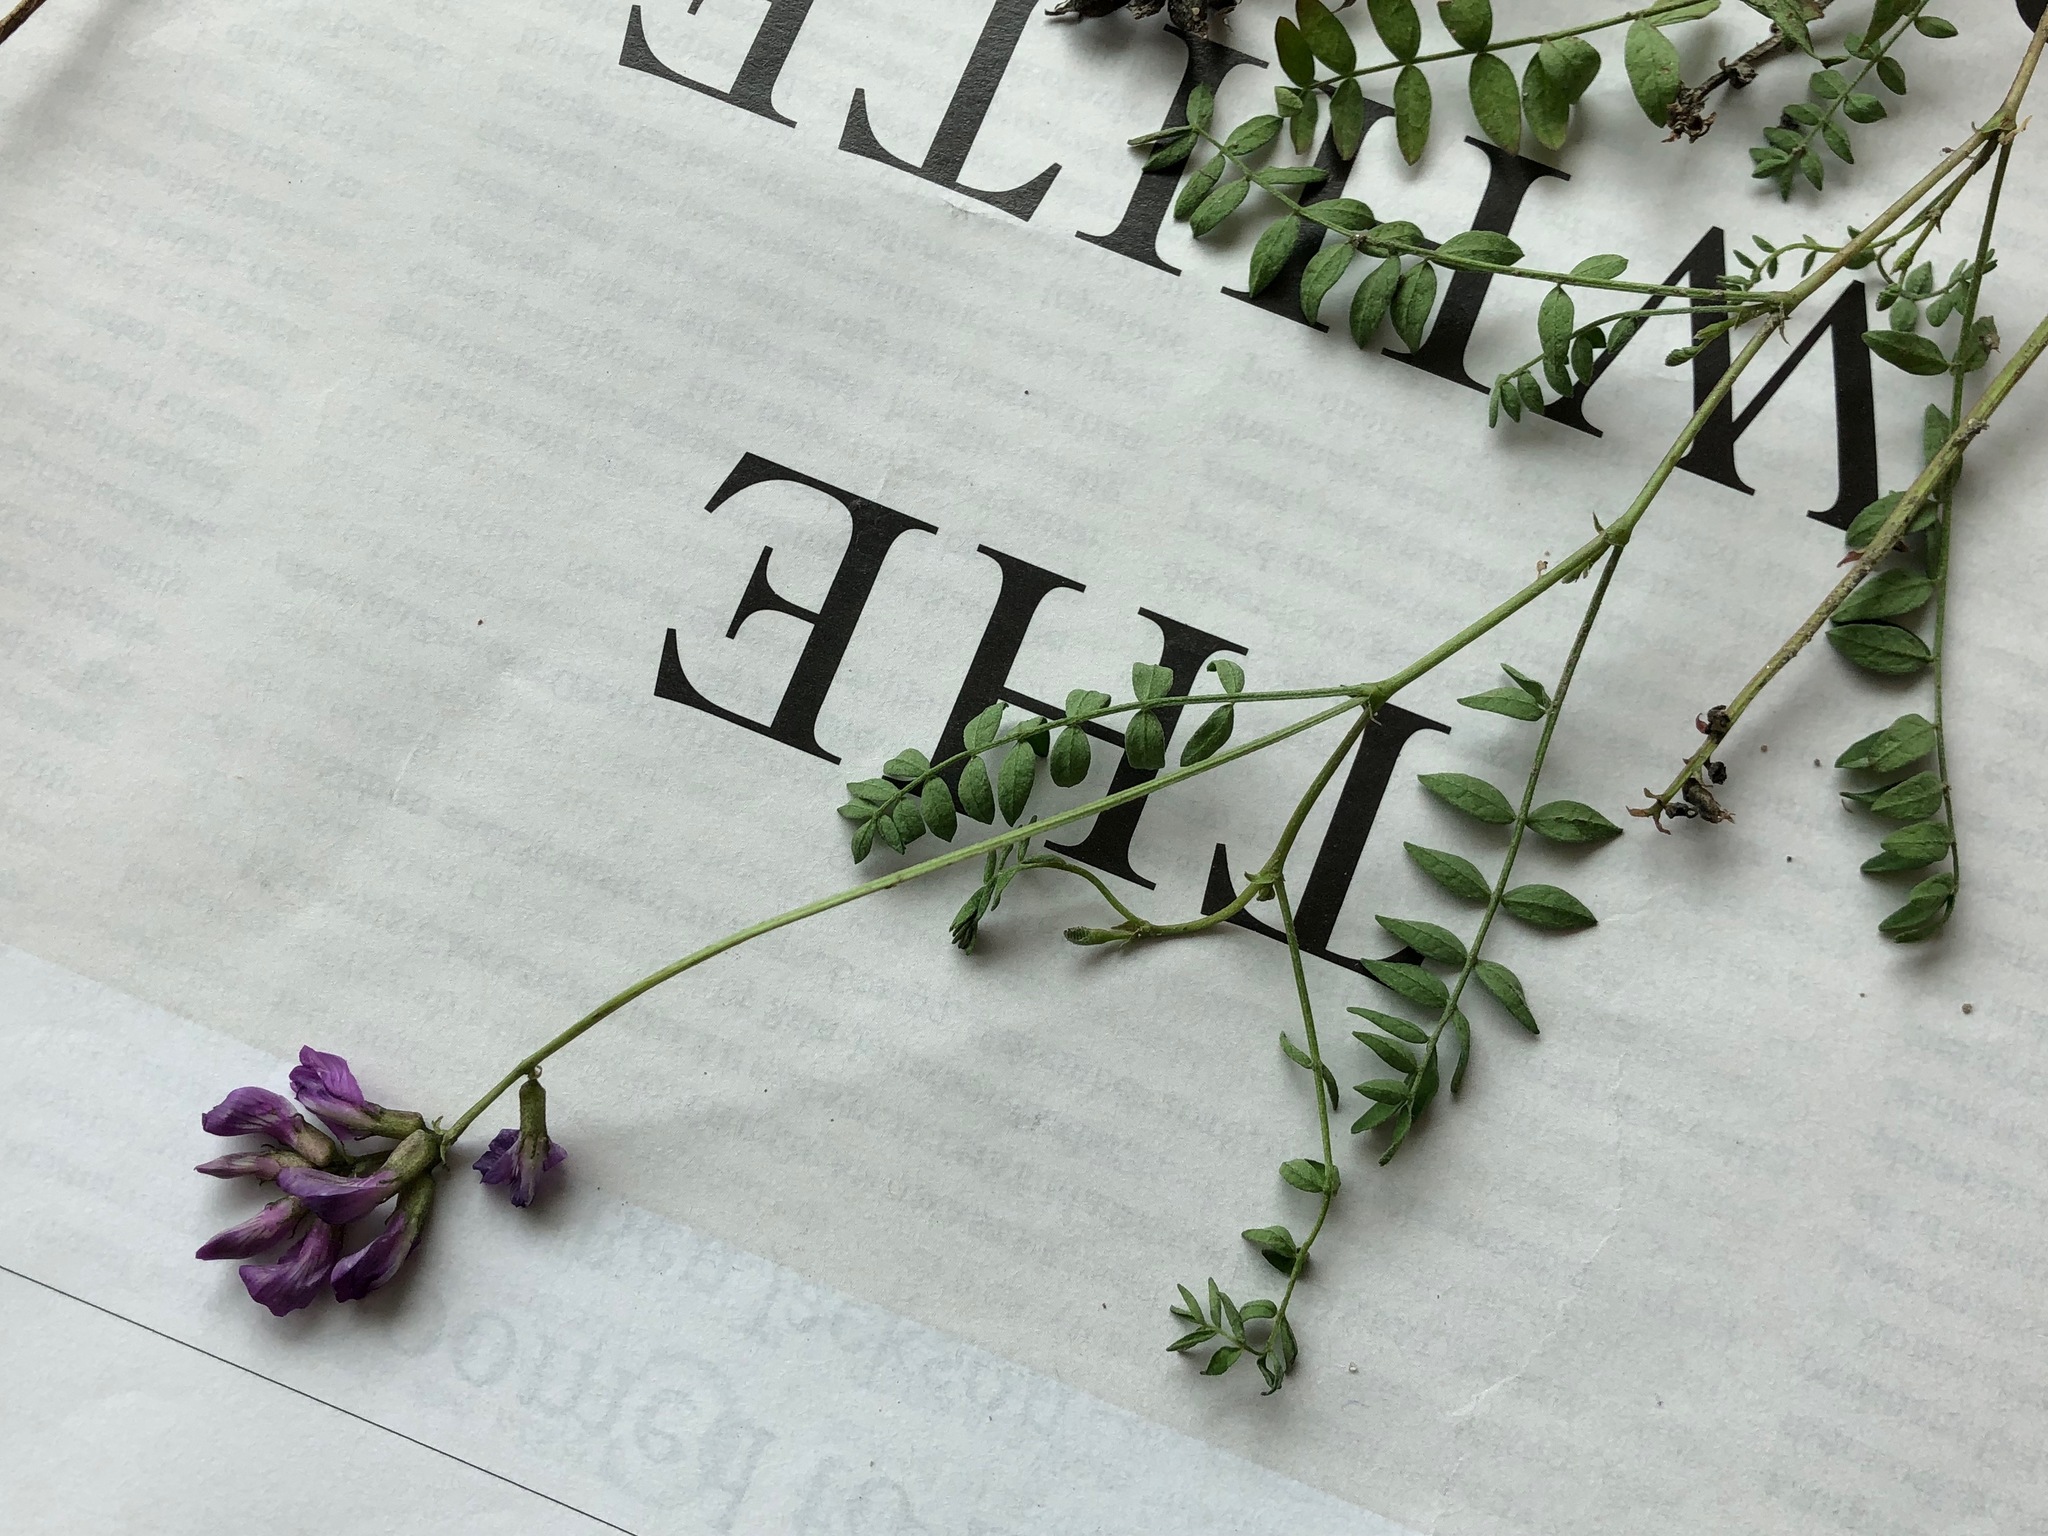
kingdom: Plantae
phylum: Tracheophyta
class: Magnoliopsida
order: Fabales
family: Fabaceae
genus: Astragalus
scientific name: Astragalus bodinii
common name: Bodin's milk-vetch
